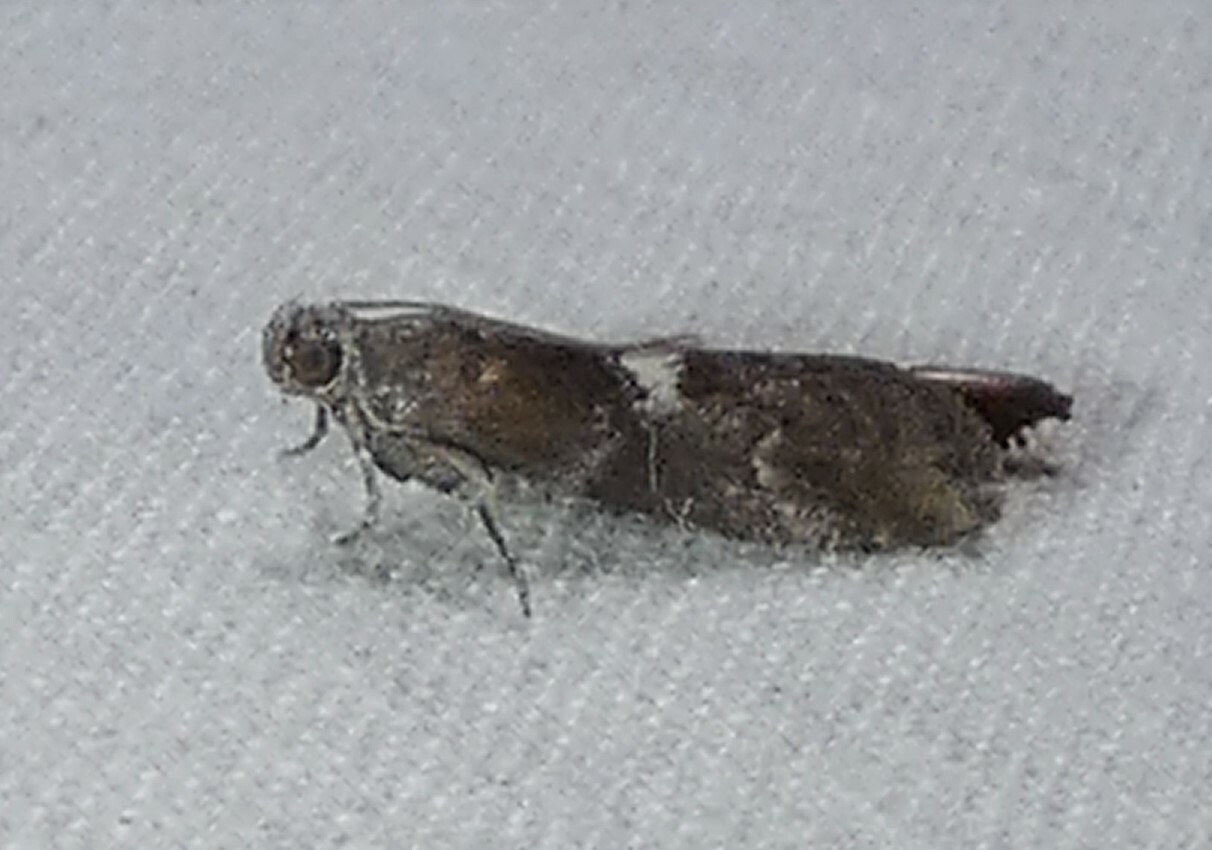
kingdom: Animalia
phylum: Arthropoda
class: Insecta
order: Lepidoptera
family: Pyralidae
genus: Salebriaria
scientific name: Salebriaria engeli
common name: Engel's salebriaria moth
